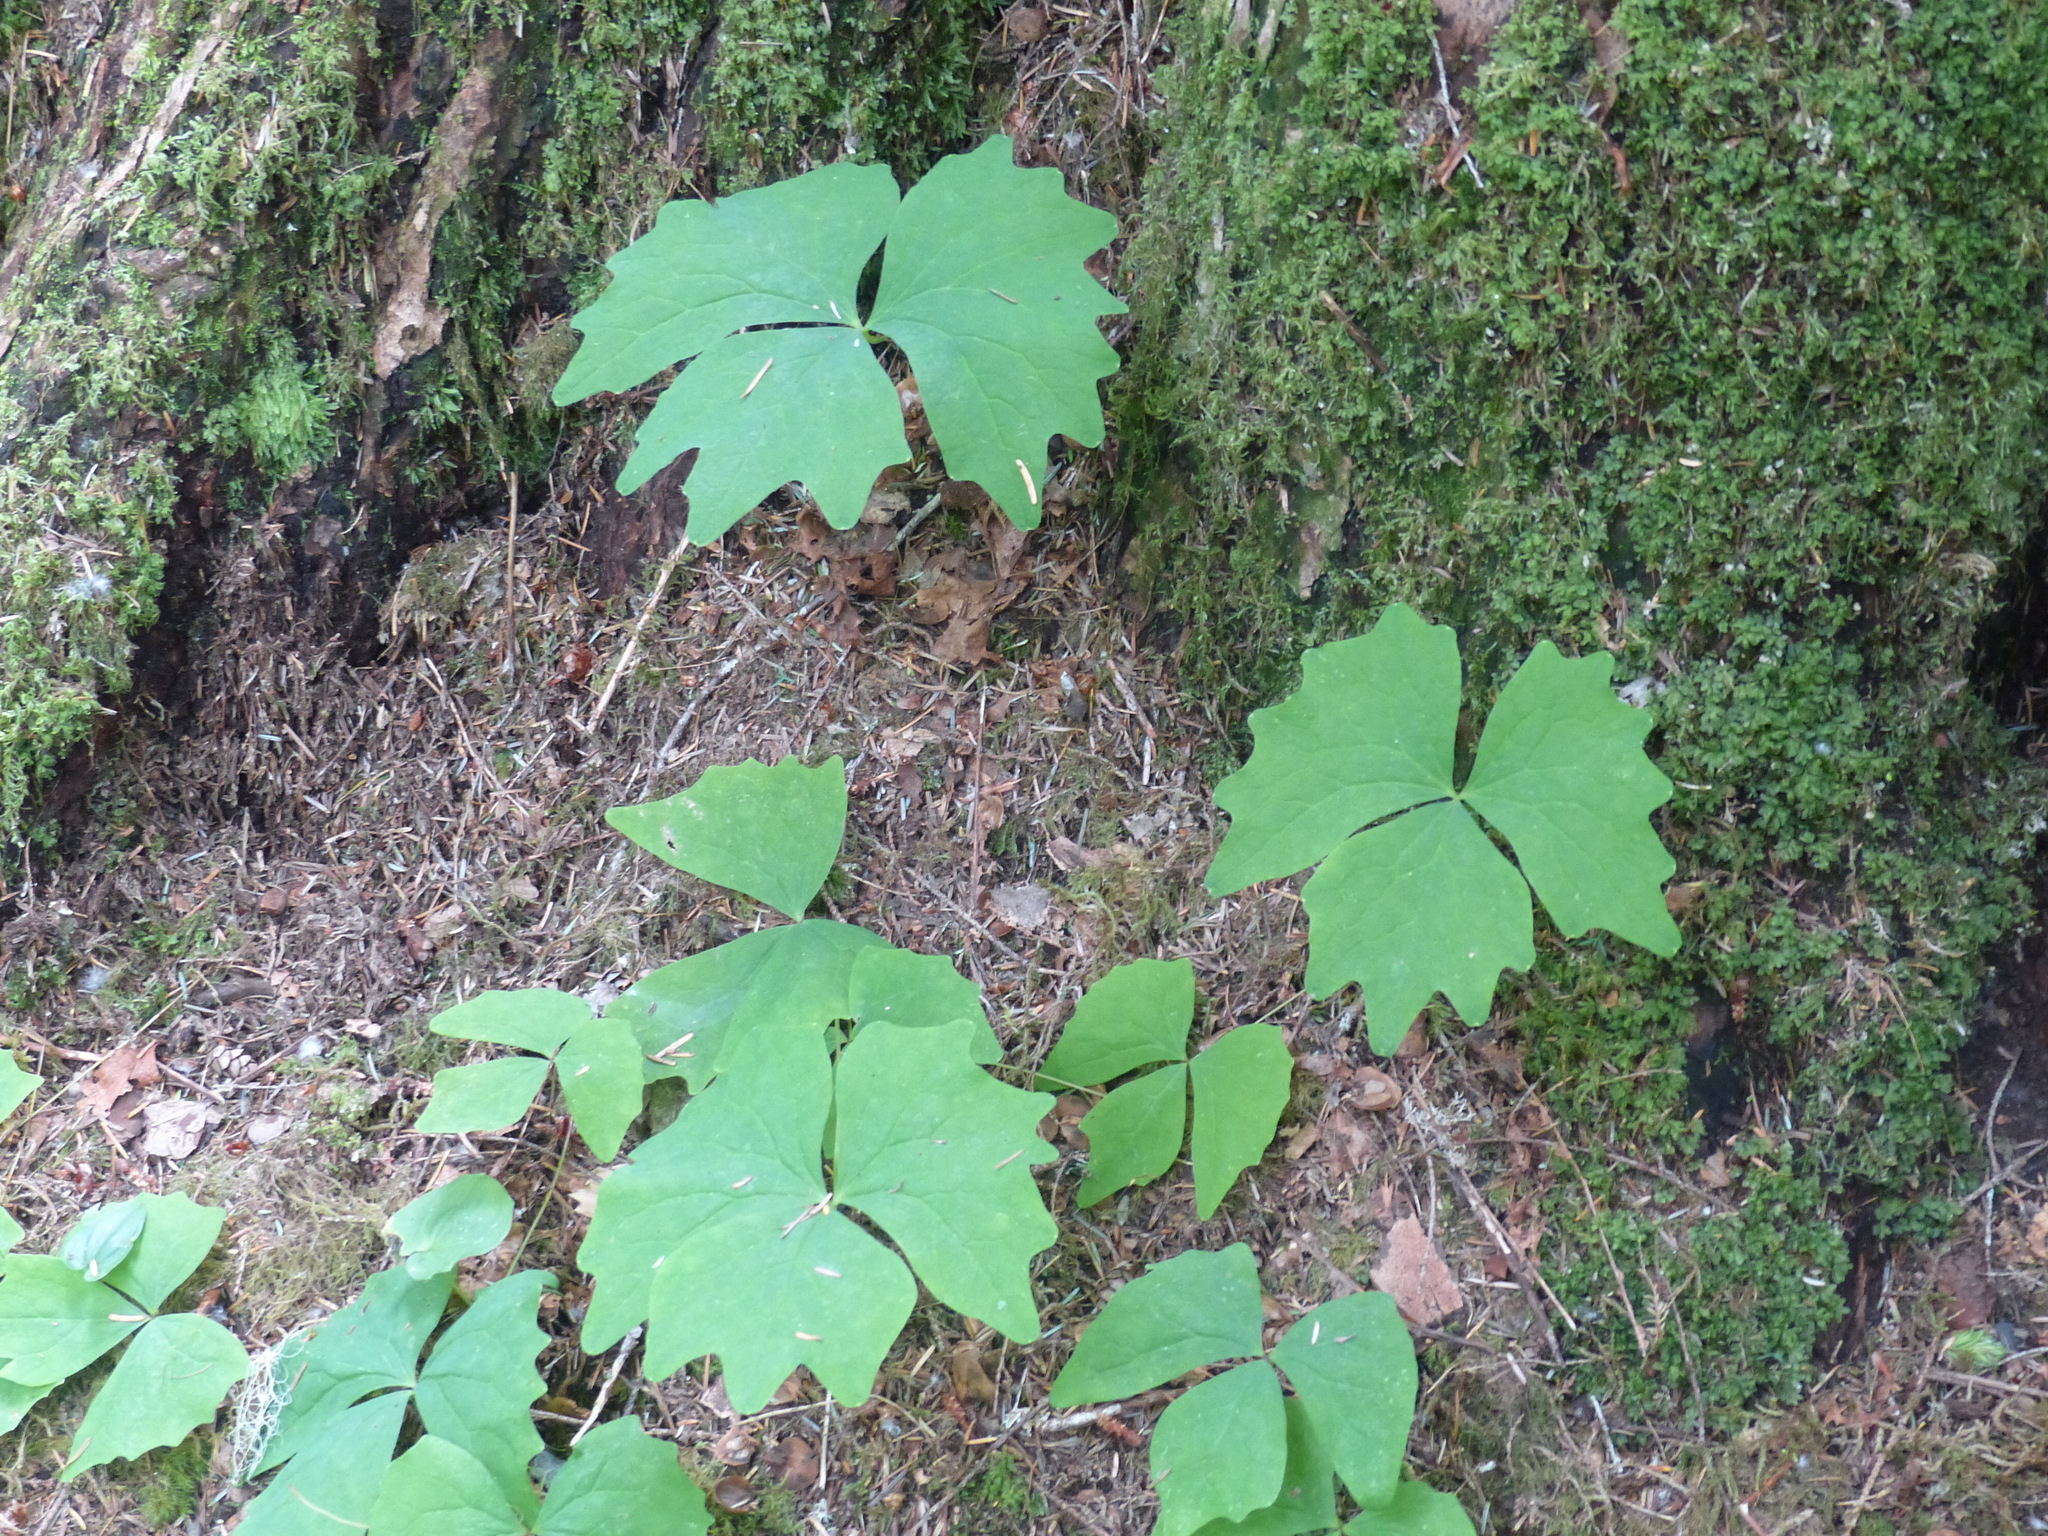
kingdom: Plantae
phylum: Tracheophyta
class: Magnoliopsida
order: Ranunculales
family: Berberidaceae
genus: Achlys
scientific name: Achlys triphylla
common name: Vanilla-leaf
